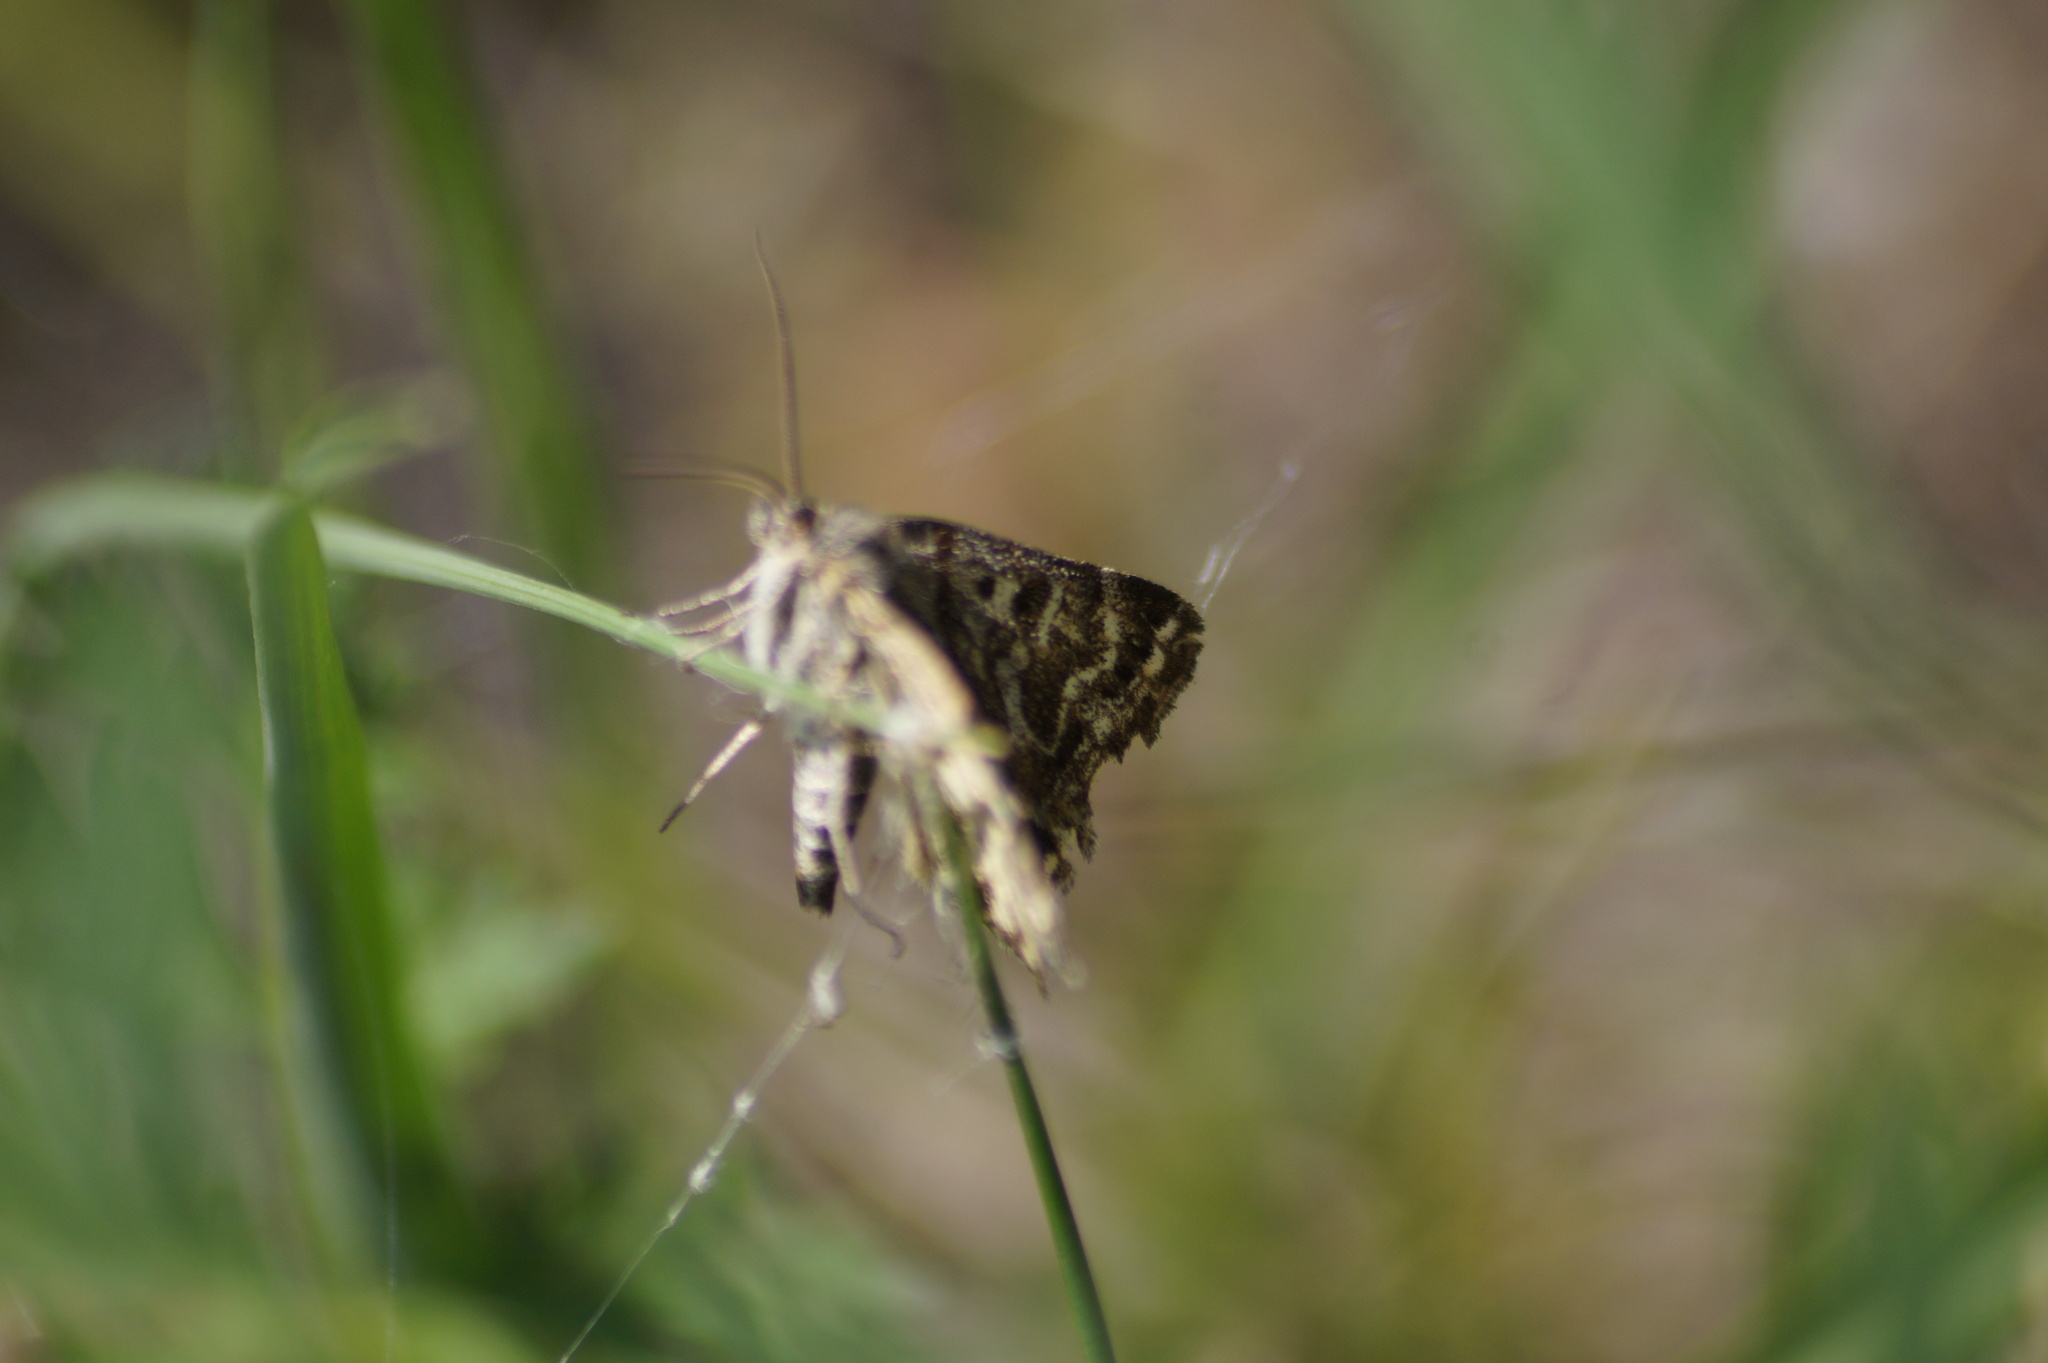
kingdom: Animalia
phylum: Arthropoda
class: Insecta
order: Lepidoptera
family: Erebidae
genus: Callistege
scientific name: Callistege mi
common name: Mother shipton
